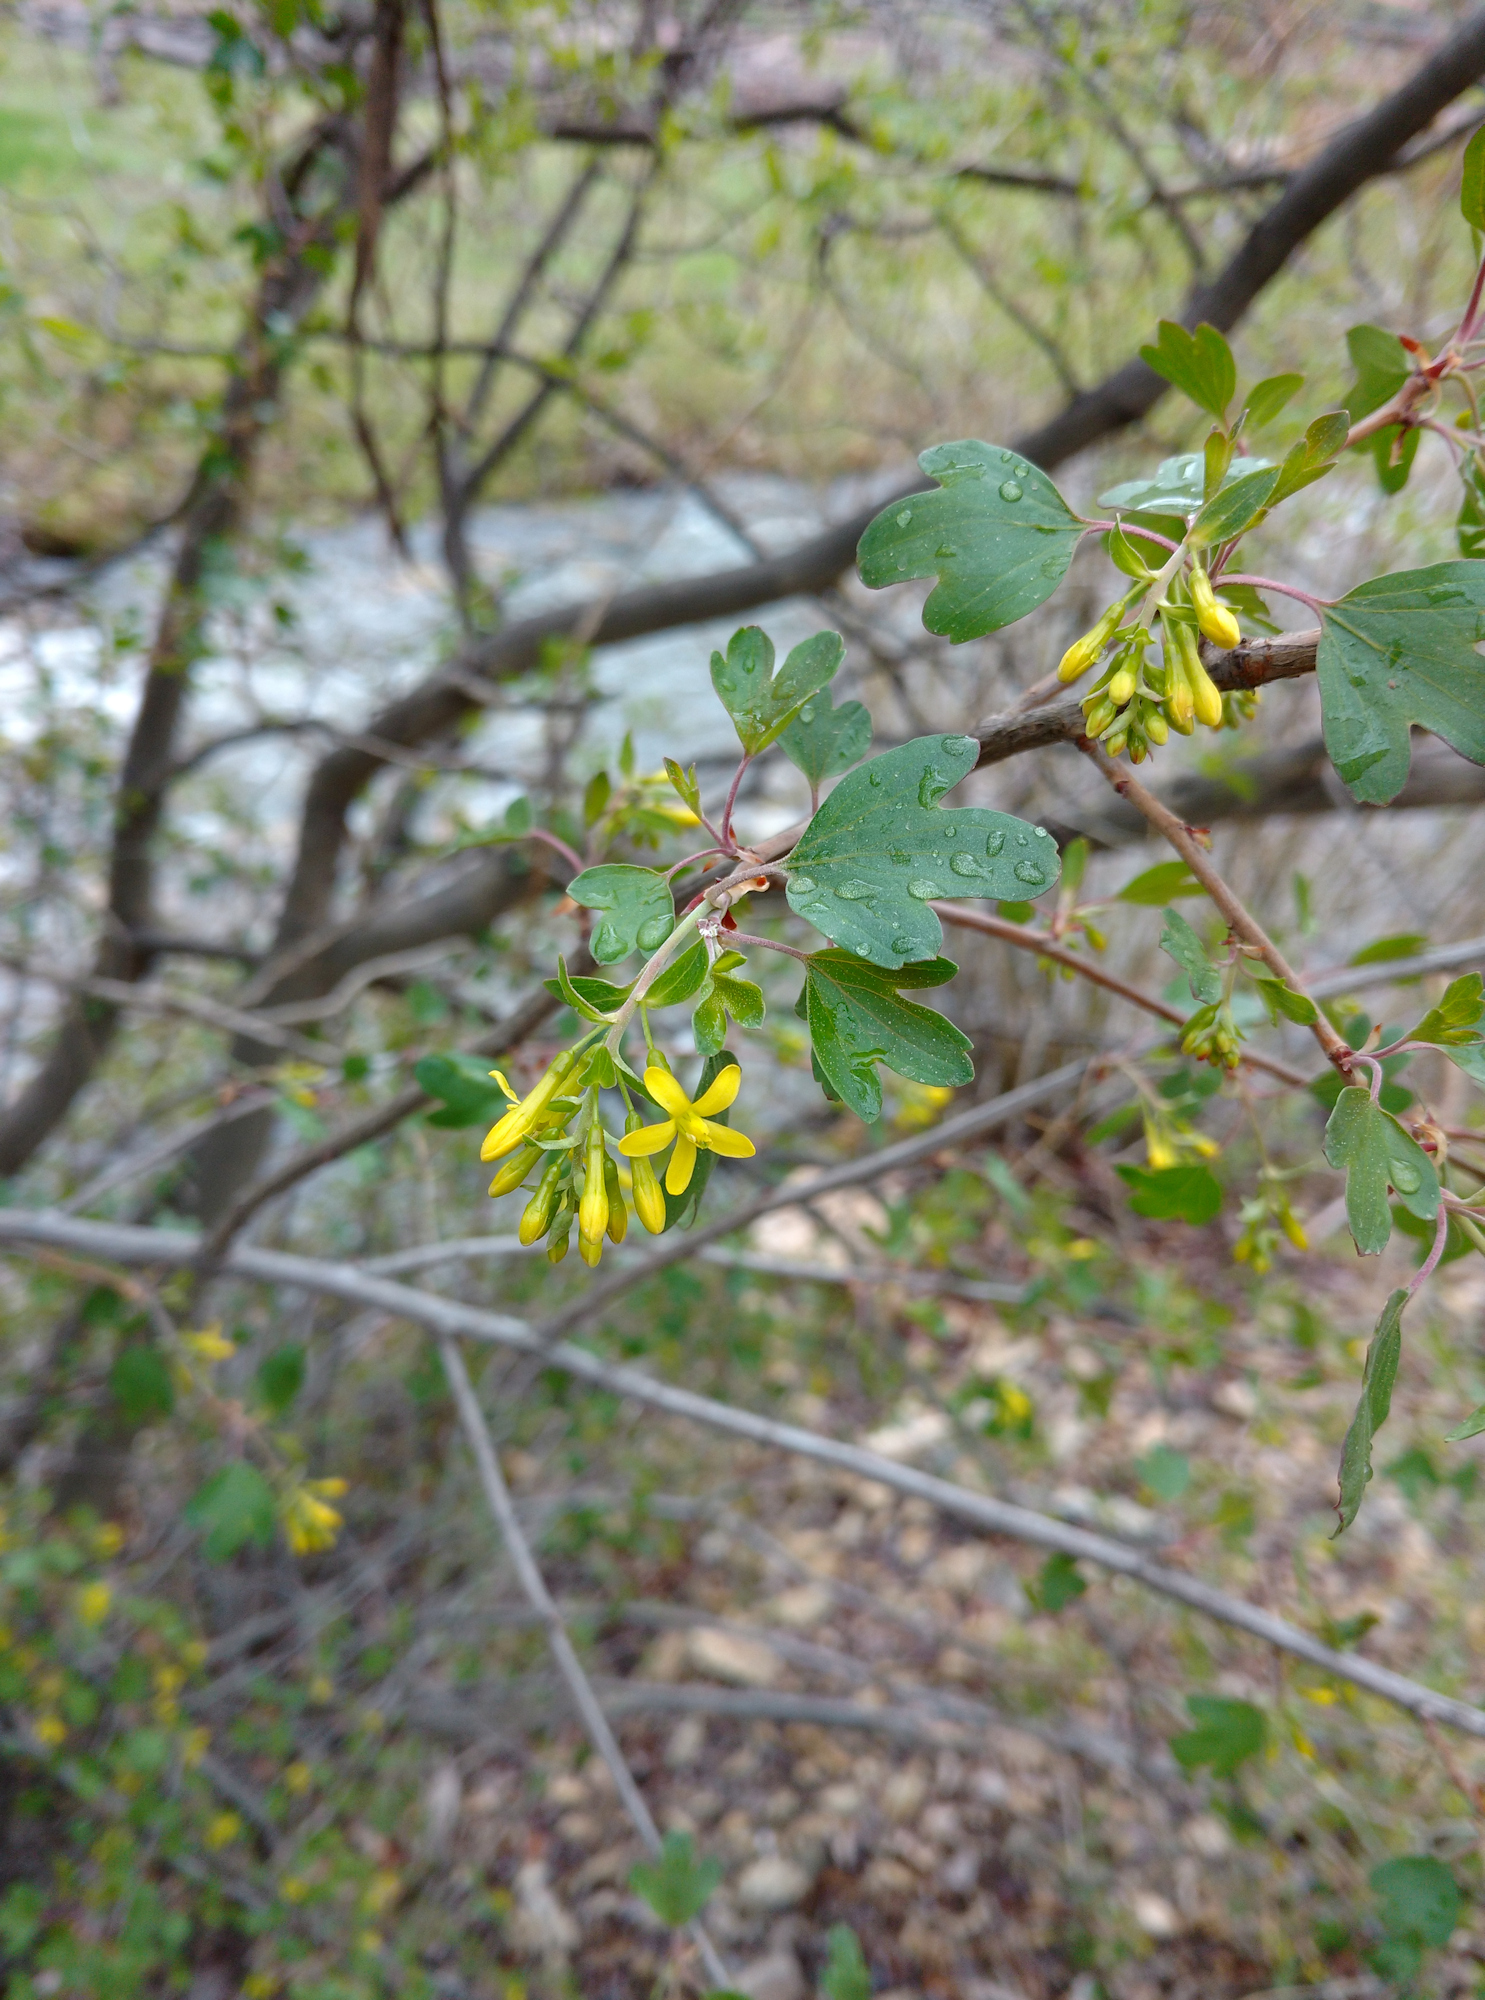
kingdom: Plantae
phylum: Tracheophyta
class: Magnoliopsida
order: Saxifragales
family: Grossulariaceae
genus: Ribes
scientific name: Ribes aureum
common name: Golden currant
